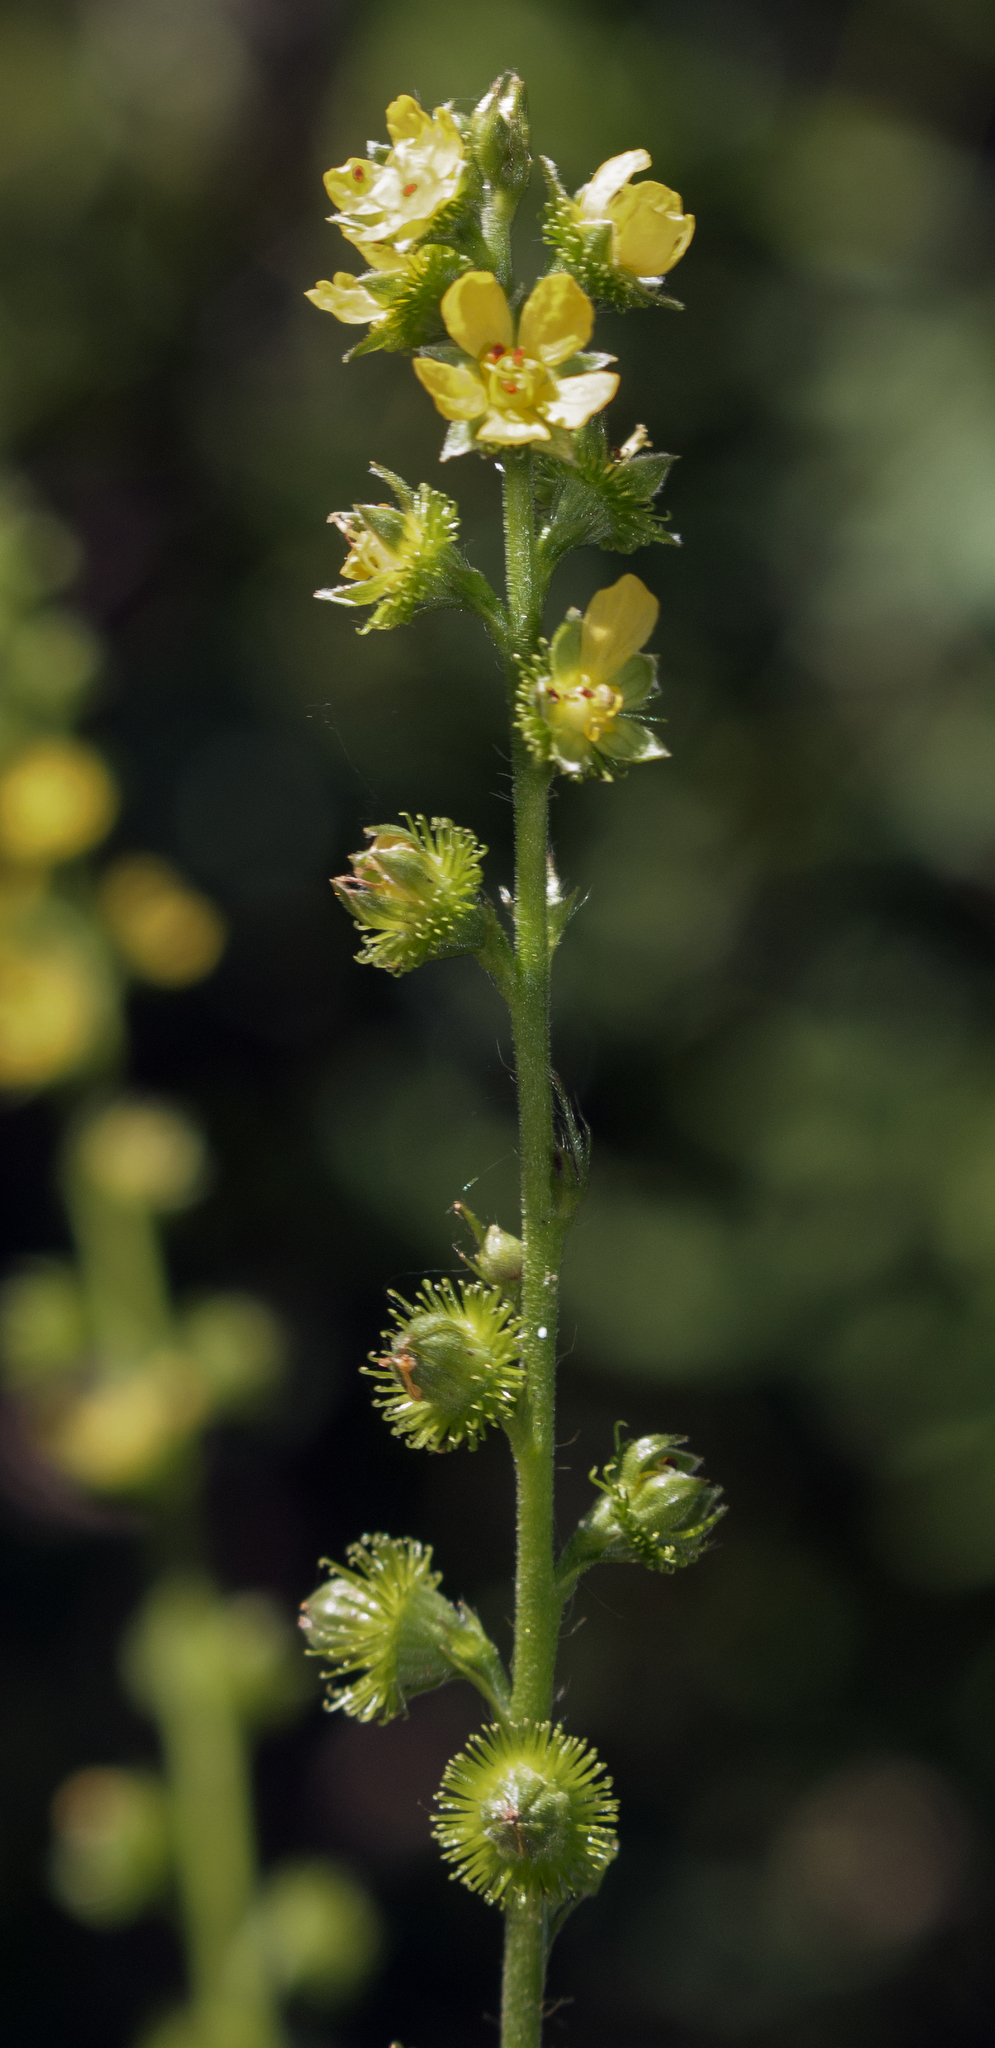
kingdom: Plantae
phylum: Tracheophyta
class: Magnoliopsida
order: Rosales
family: Rosaceae
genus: Agrimonia
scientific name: Agrimonia gryposepala
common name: Common agrimony
